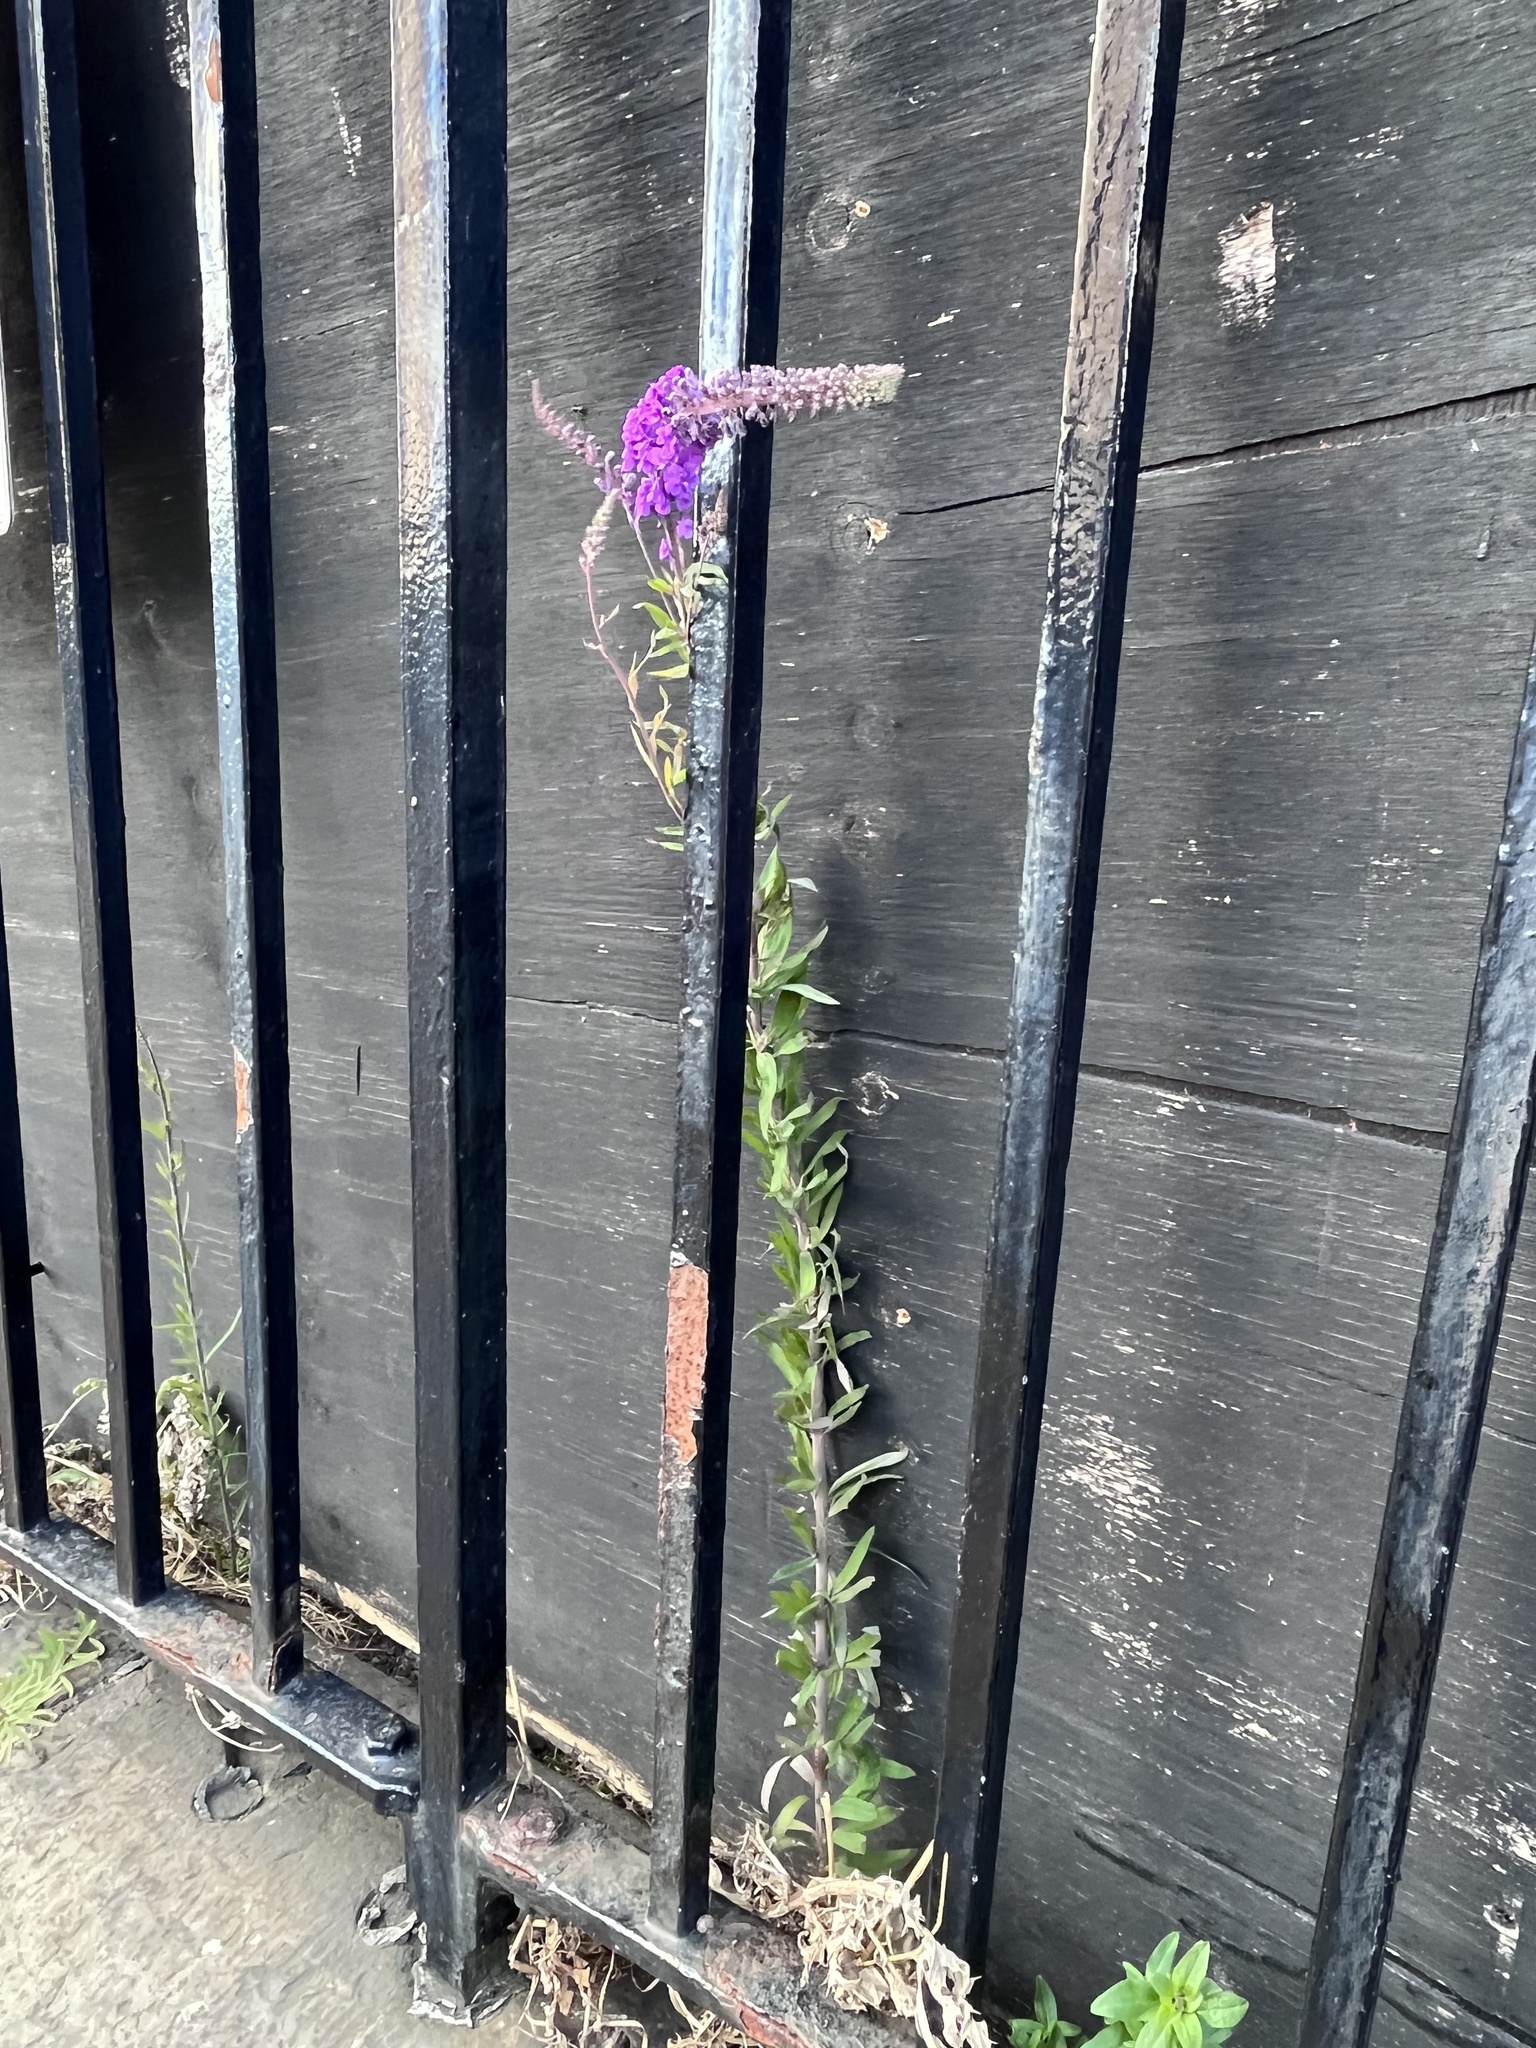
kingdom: Plantae
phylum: Tracheophyta
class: Magnoliopsida
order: Lamiales
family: Plantaginaceae
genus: Linaria
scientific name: Linaria purpurea
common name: Purple toadflax
